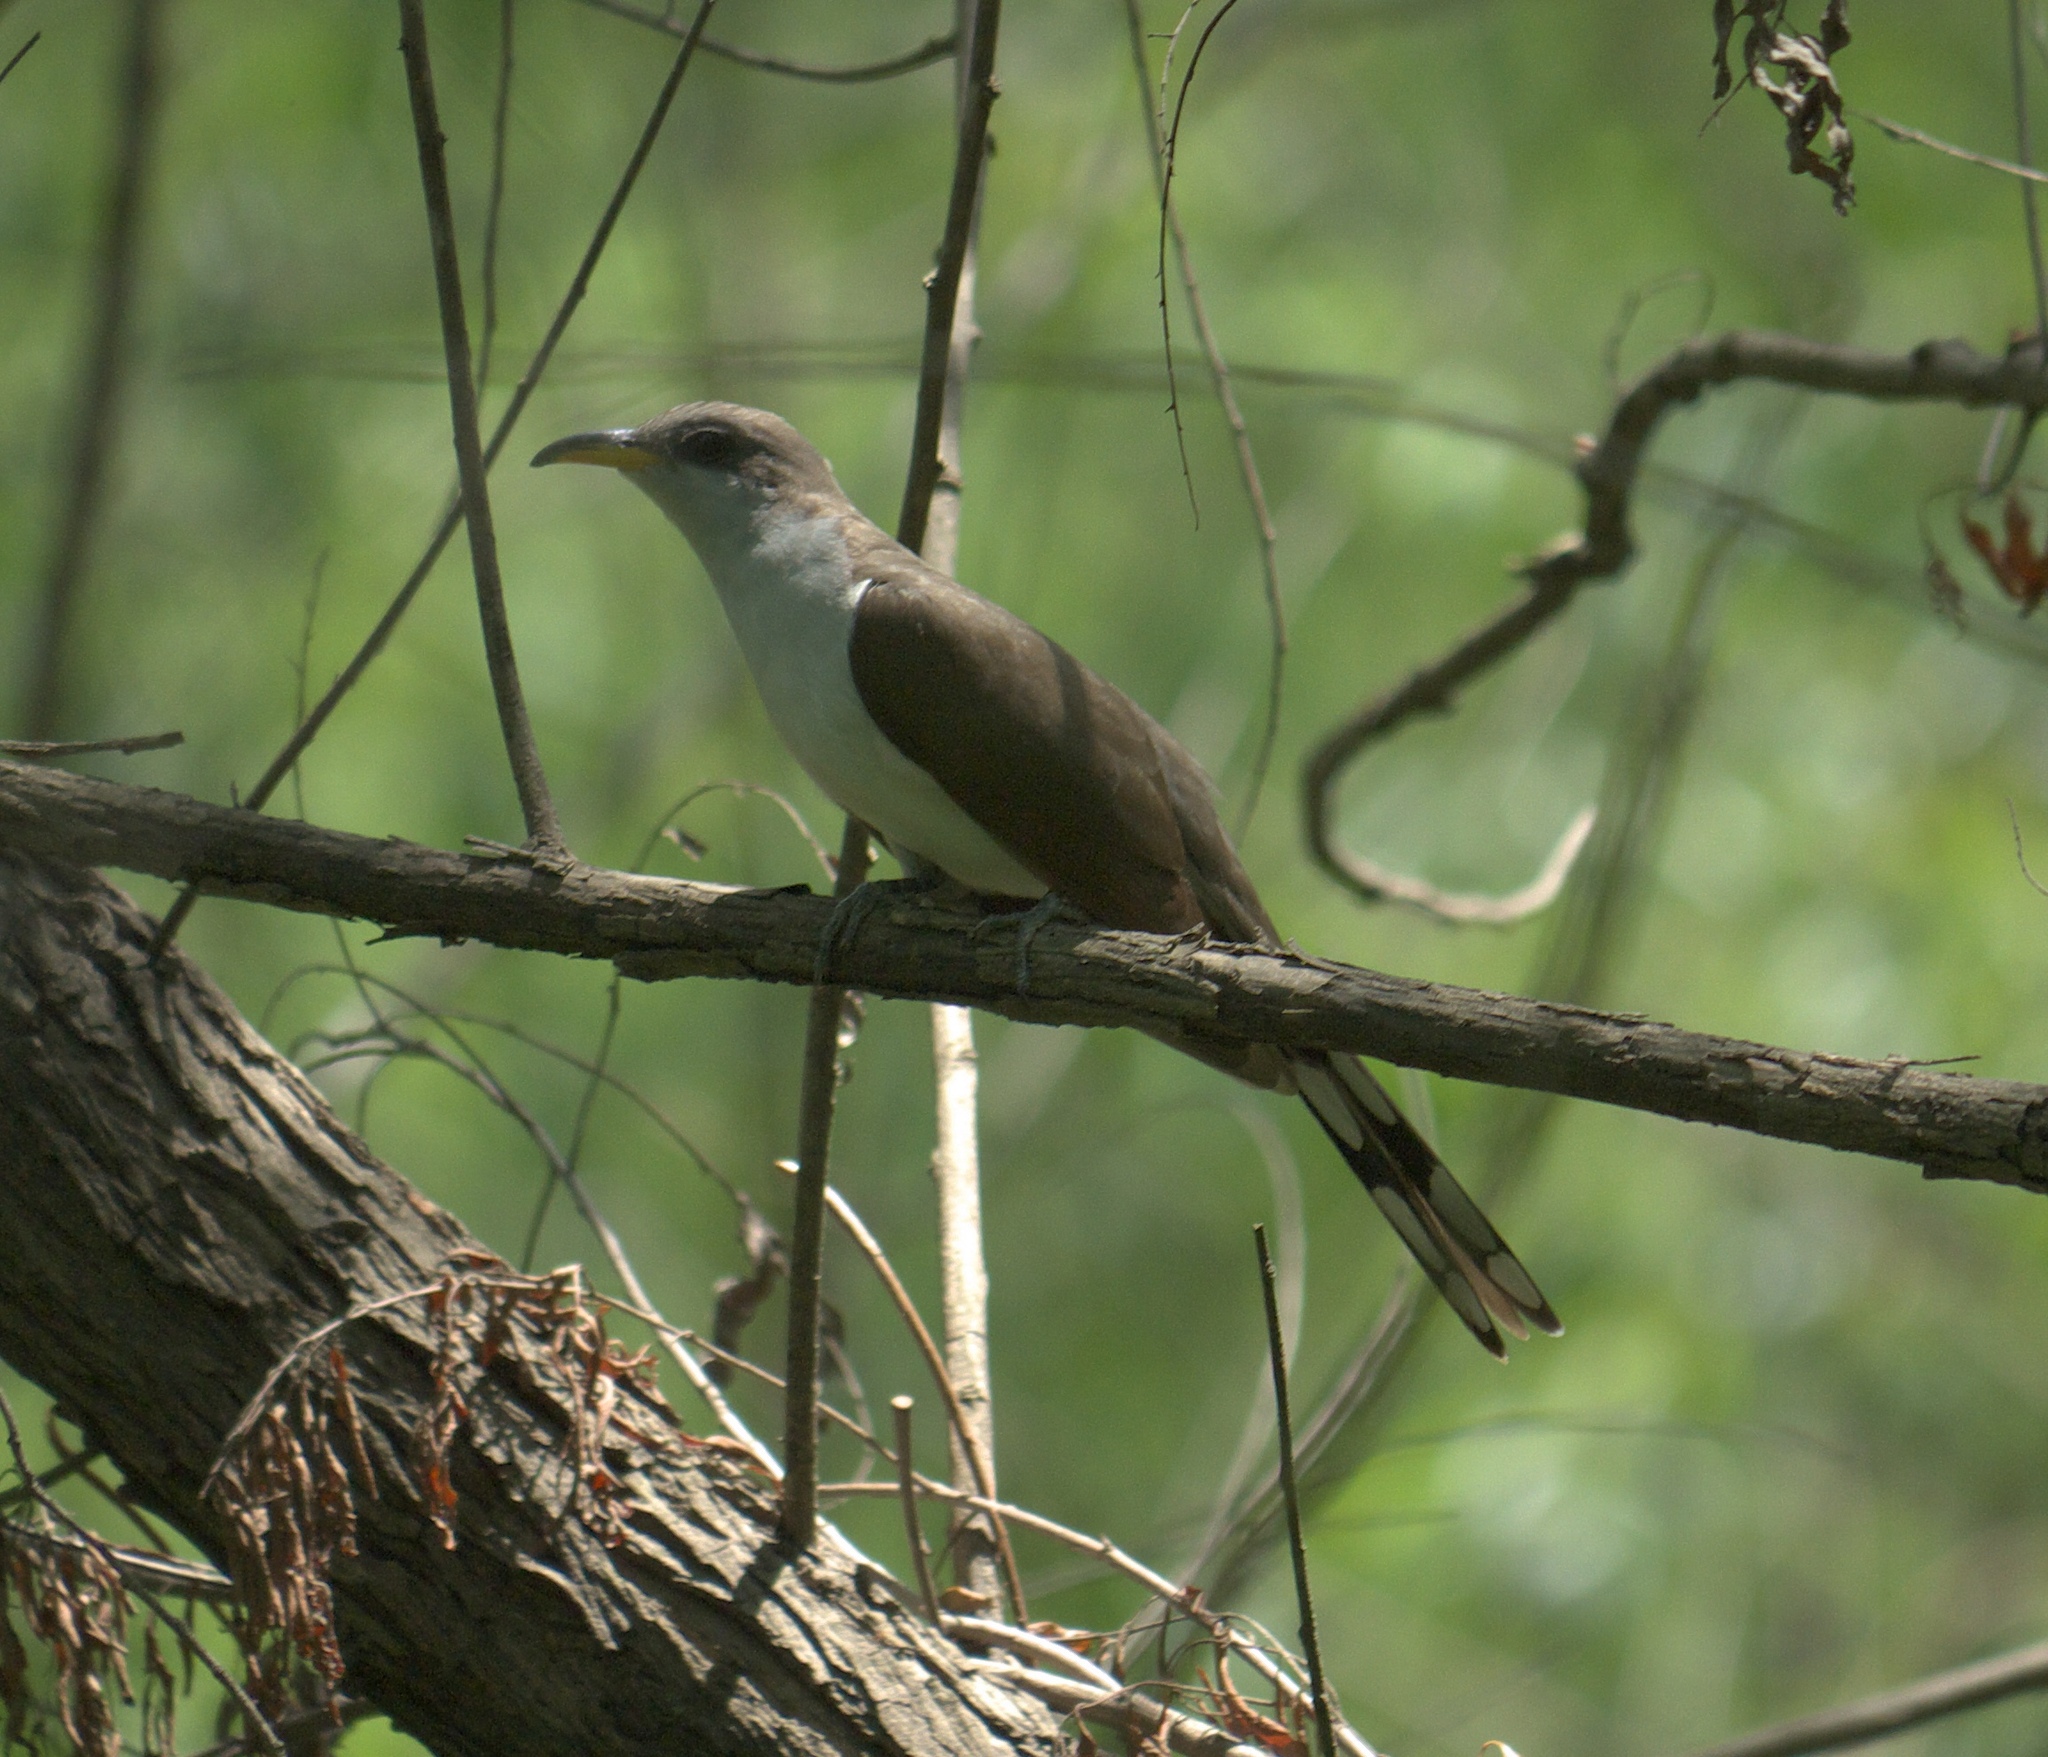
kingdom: Animalia
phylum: Chordata
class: Aves
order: Cuculiformes
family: Cuculidae
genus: Coccyzus
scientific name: Coccyzus americanus
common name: Yellow-billed cuckoo
